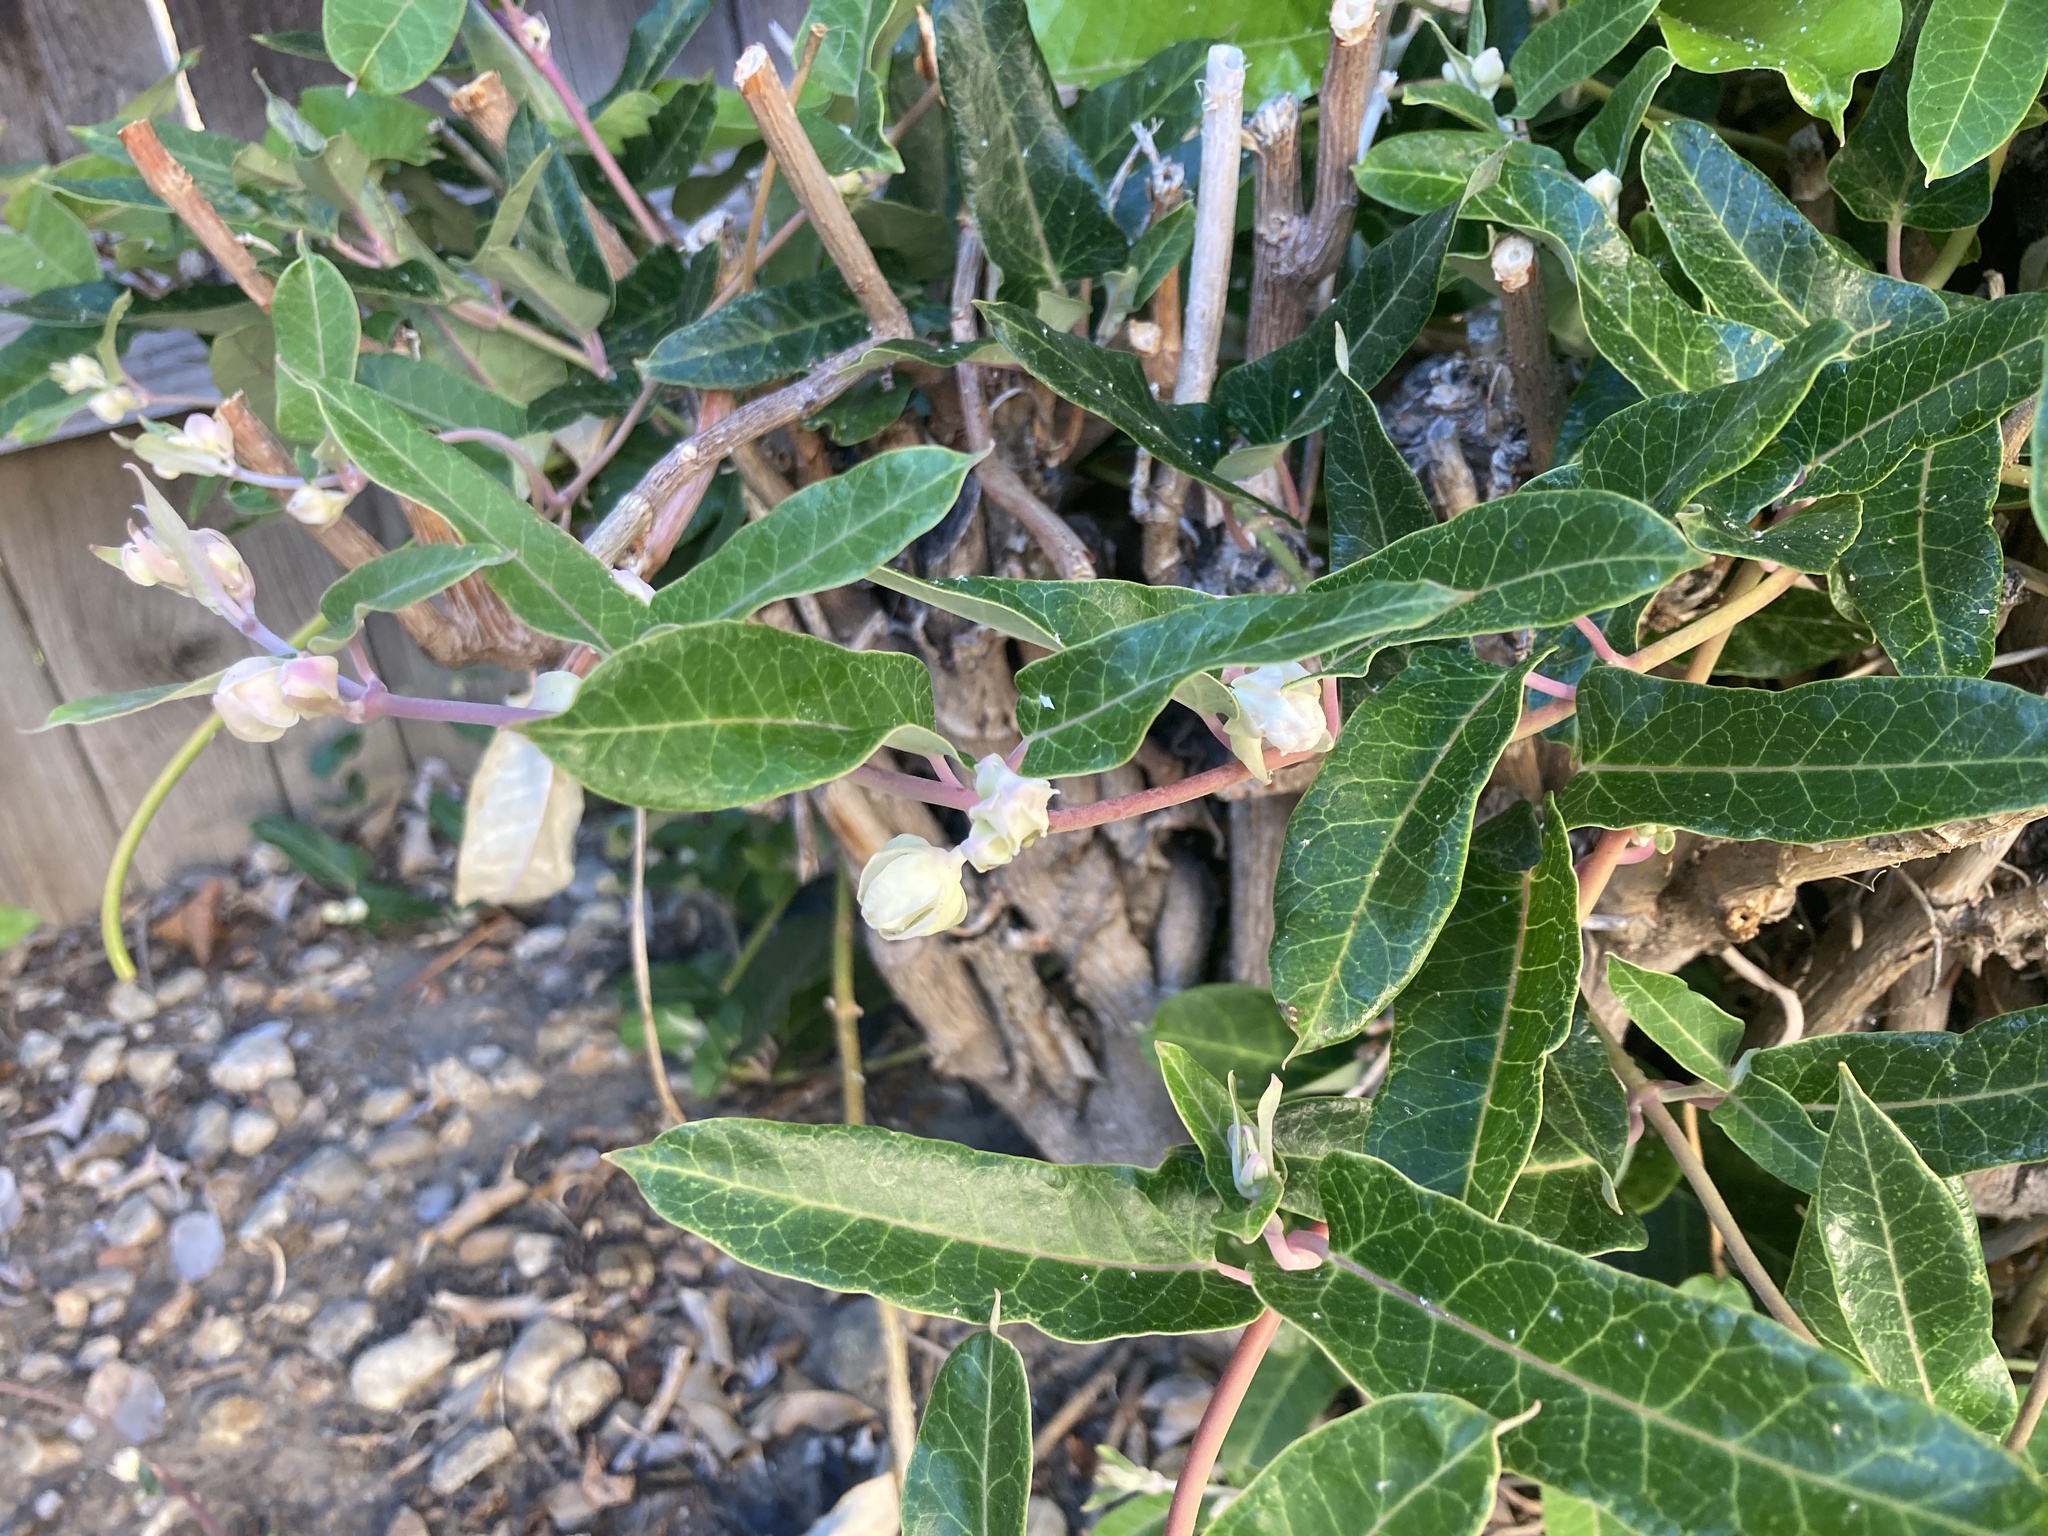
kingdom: Plantae
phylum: Tracheophyta
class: Magnoliopsida
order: Gentianales
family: Apocynaceae
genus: Araujia
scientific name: Araujia sericifera
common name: White bladderflower
